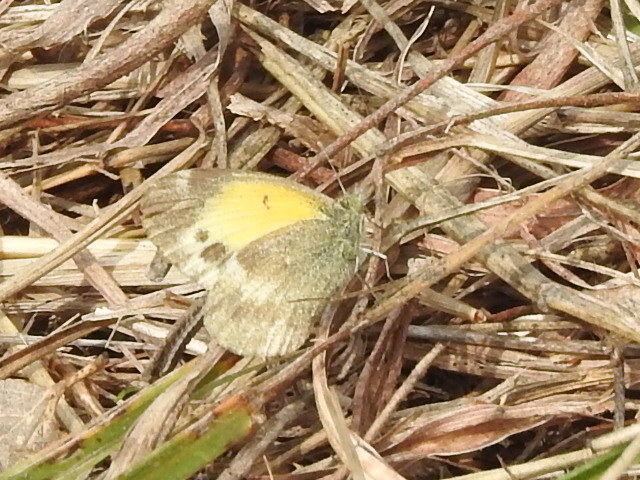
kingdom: Animalia
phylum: Arthropoda
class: Insecta
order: Lepidoptera
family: Pieridae
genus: Nathalis
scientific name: Nathalis iole
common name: Dainty sulphur
